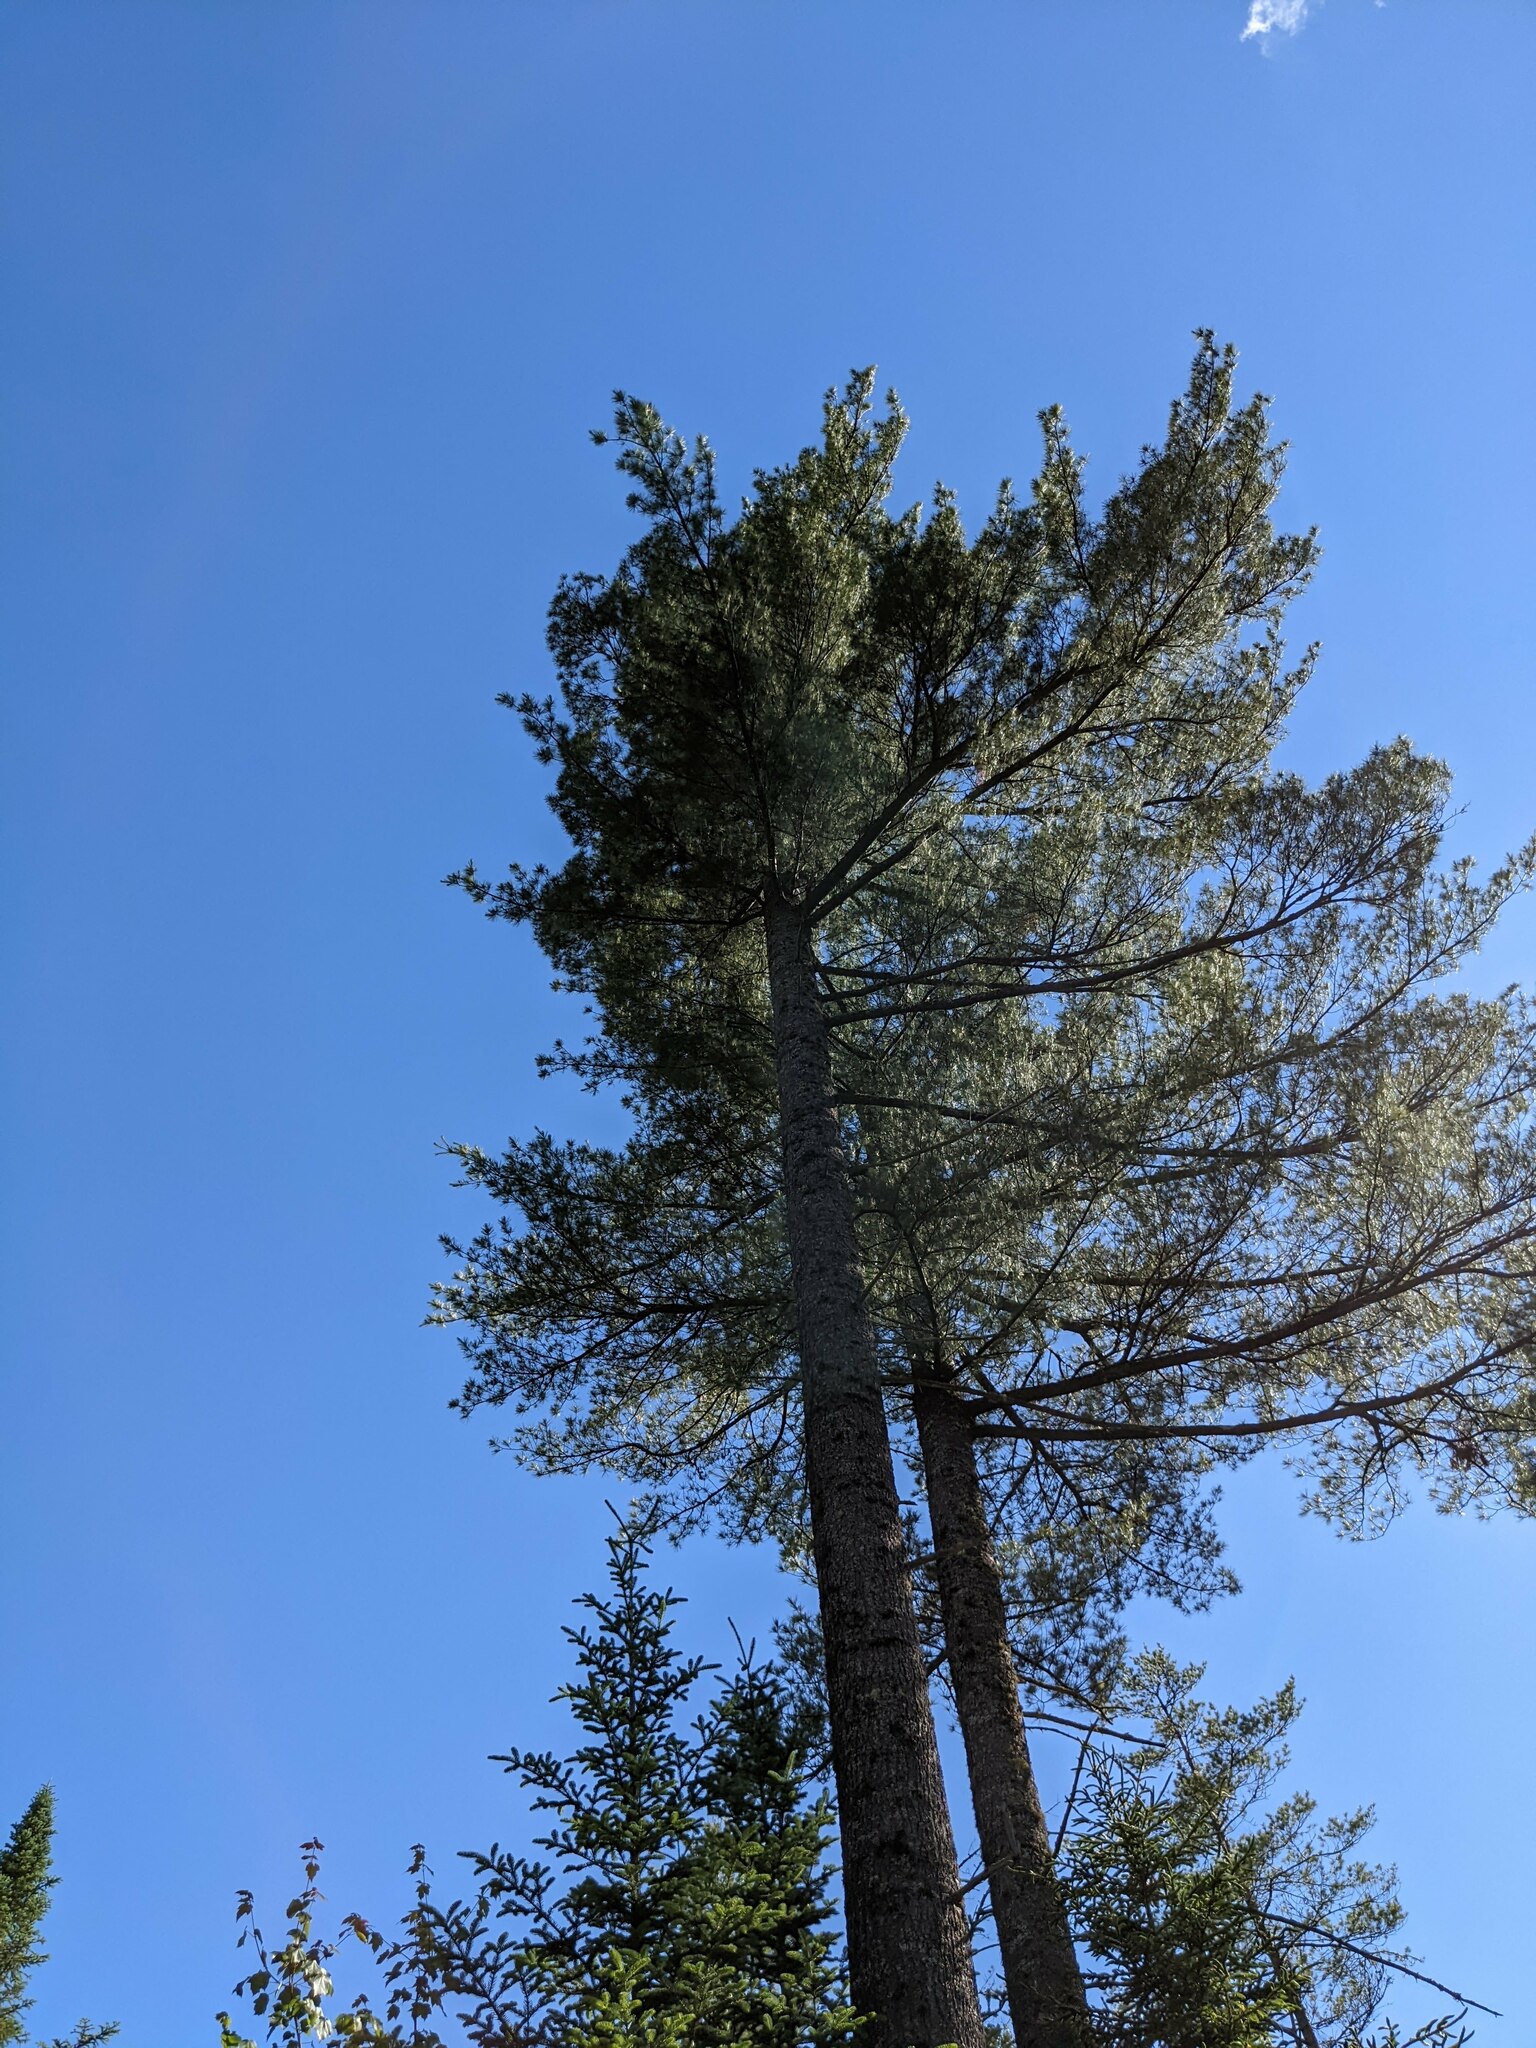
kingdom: Plantae
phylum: Tracheophyta
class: Pinopsida
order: Pinales
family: Pinaceae
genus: Pinus
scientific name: Pinus strobus
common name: Weymouth pine
